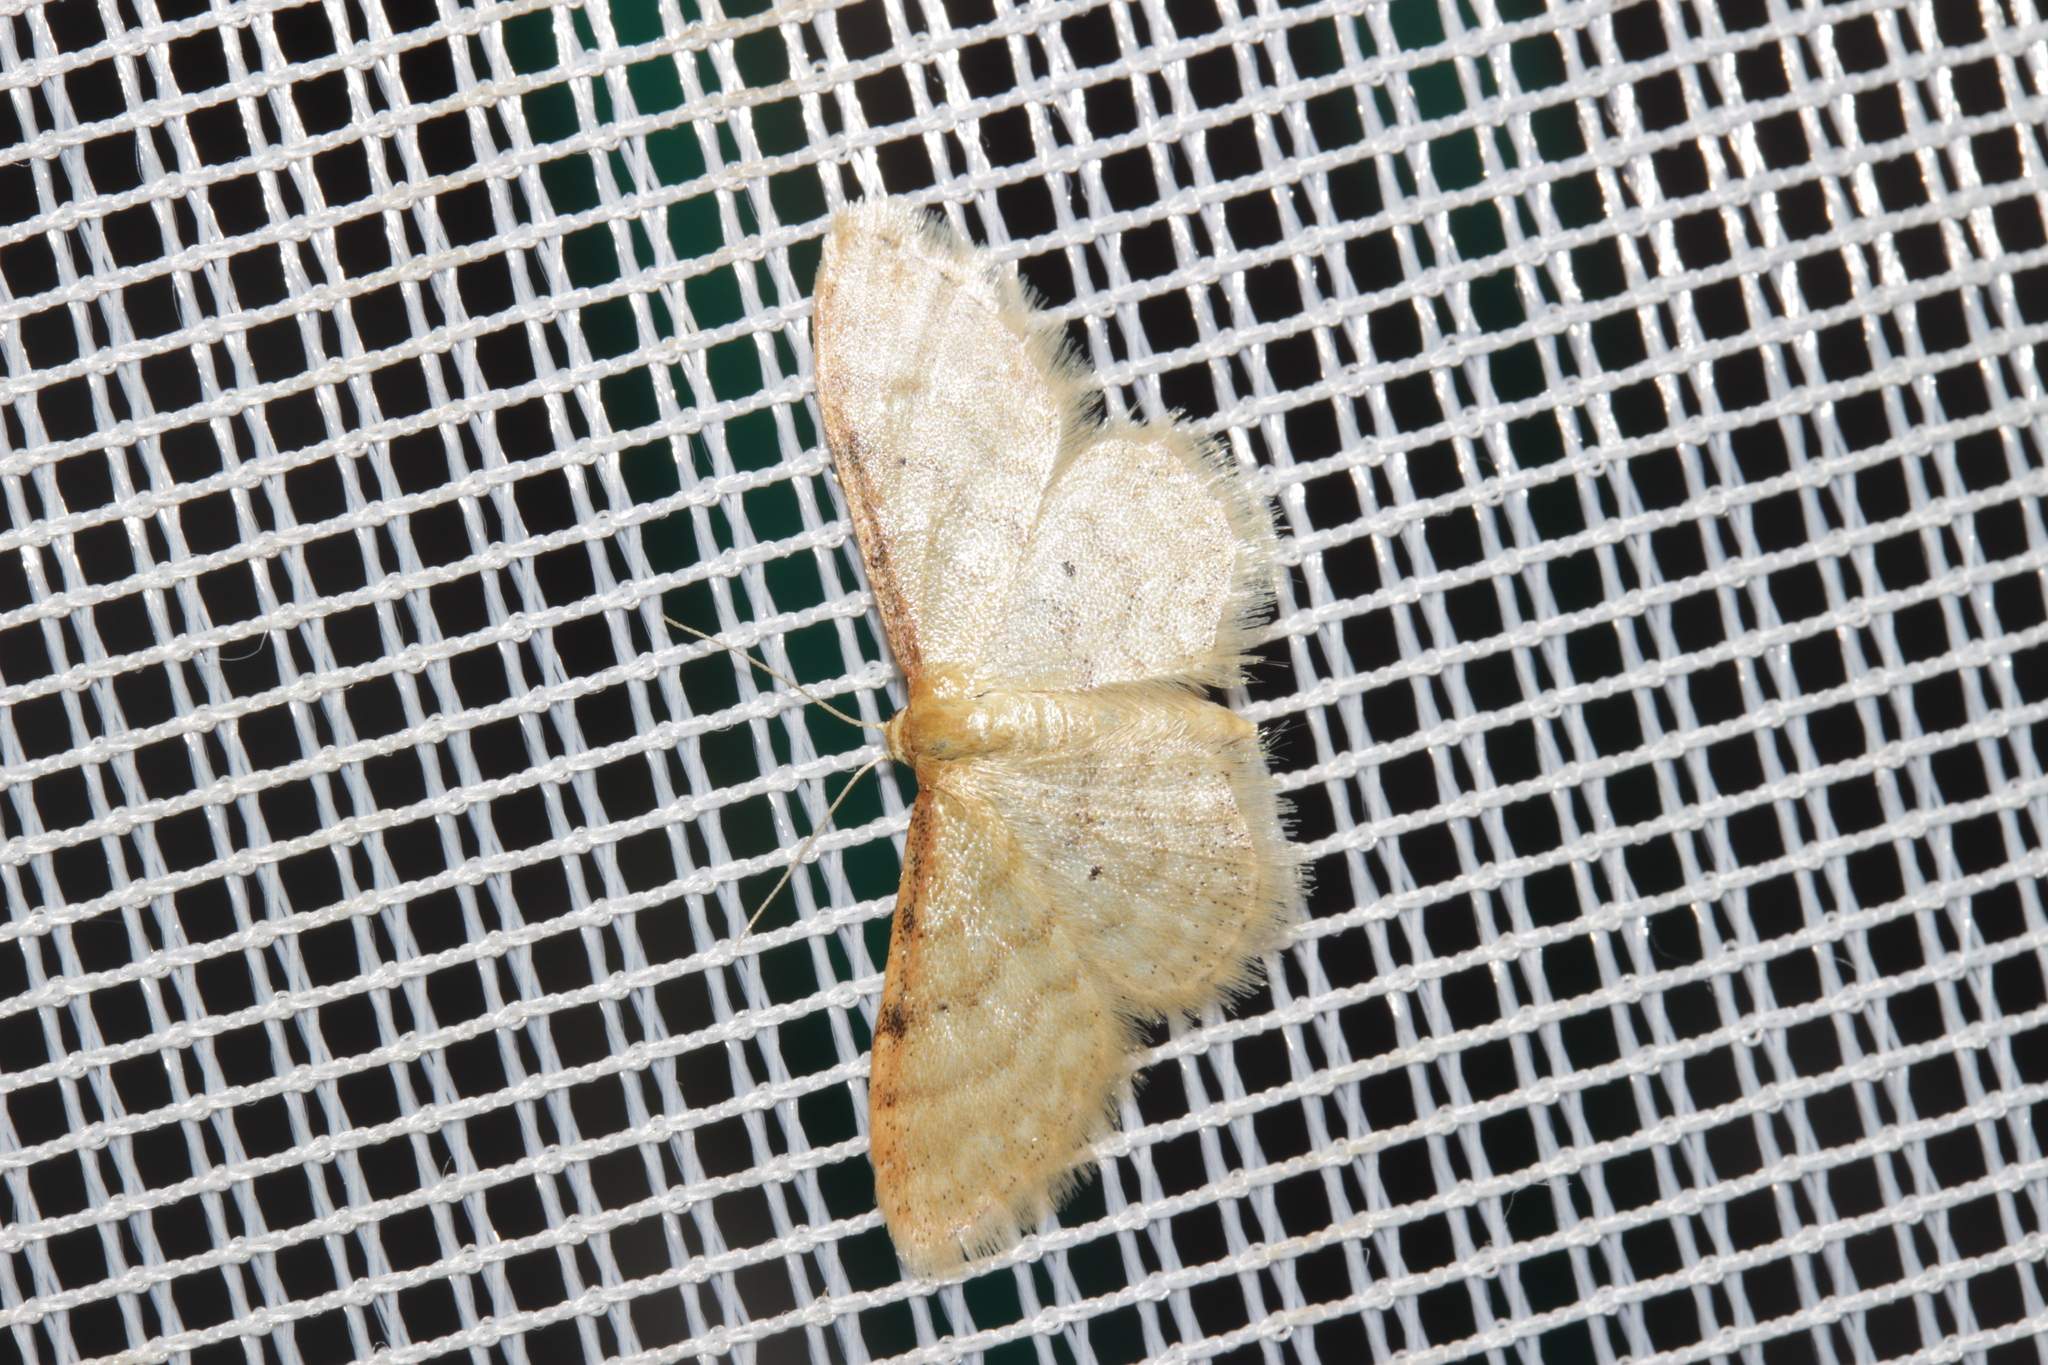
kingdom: Animalia
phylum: Arthropoda
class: Insecta
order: Lepidoptera
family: Geometridae
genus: Idaea
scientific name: Idaea humiliata
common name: Isle of wight wave
